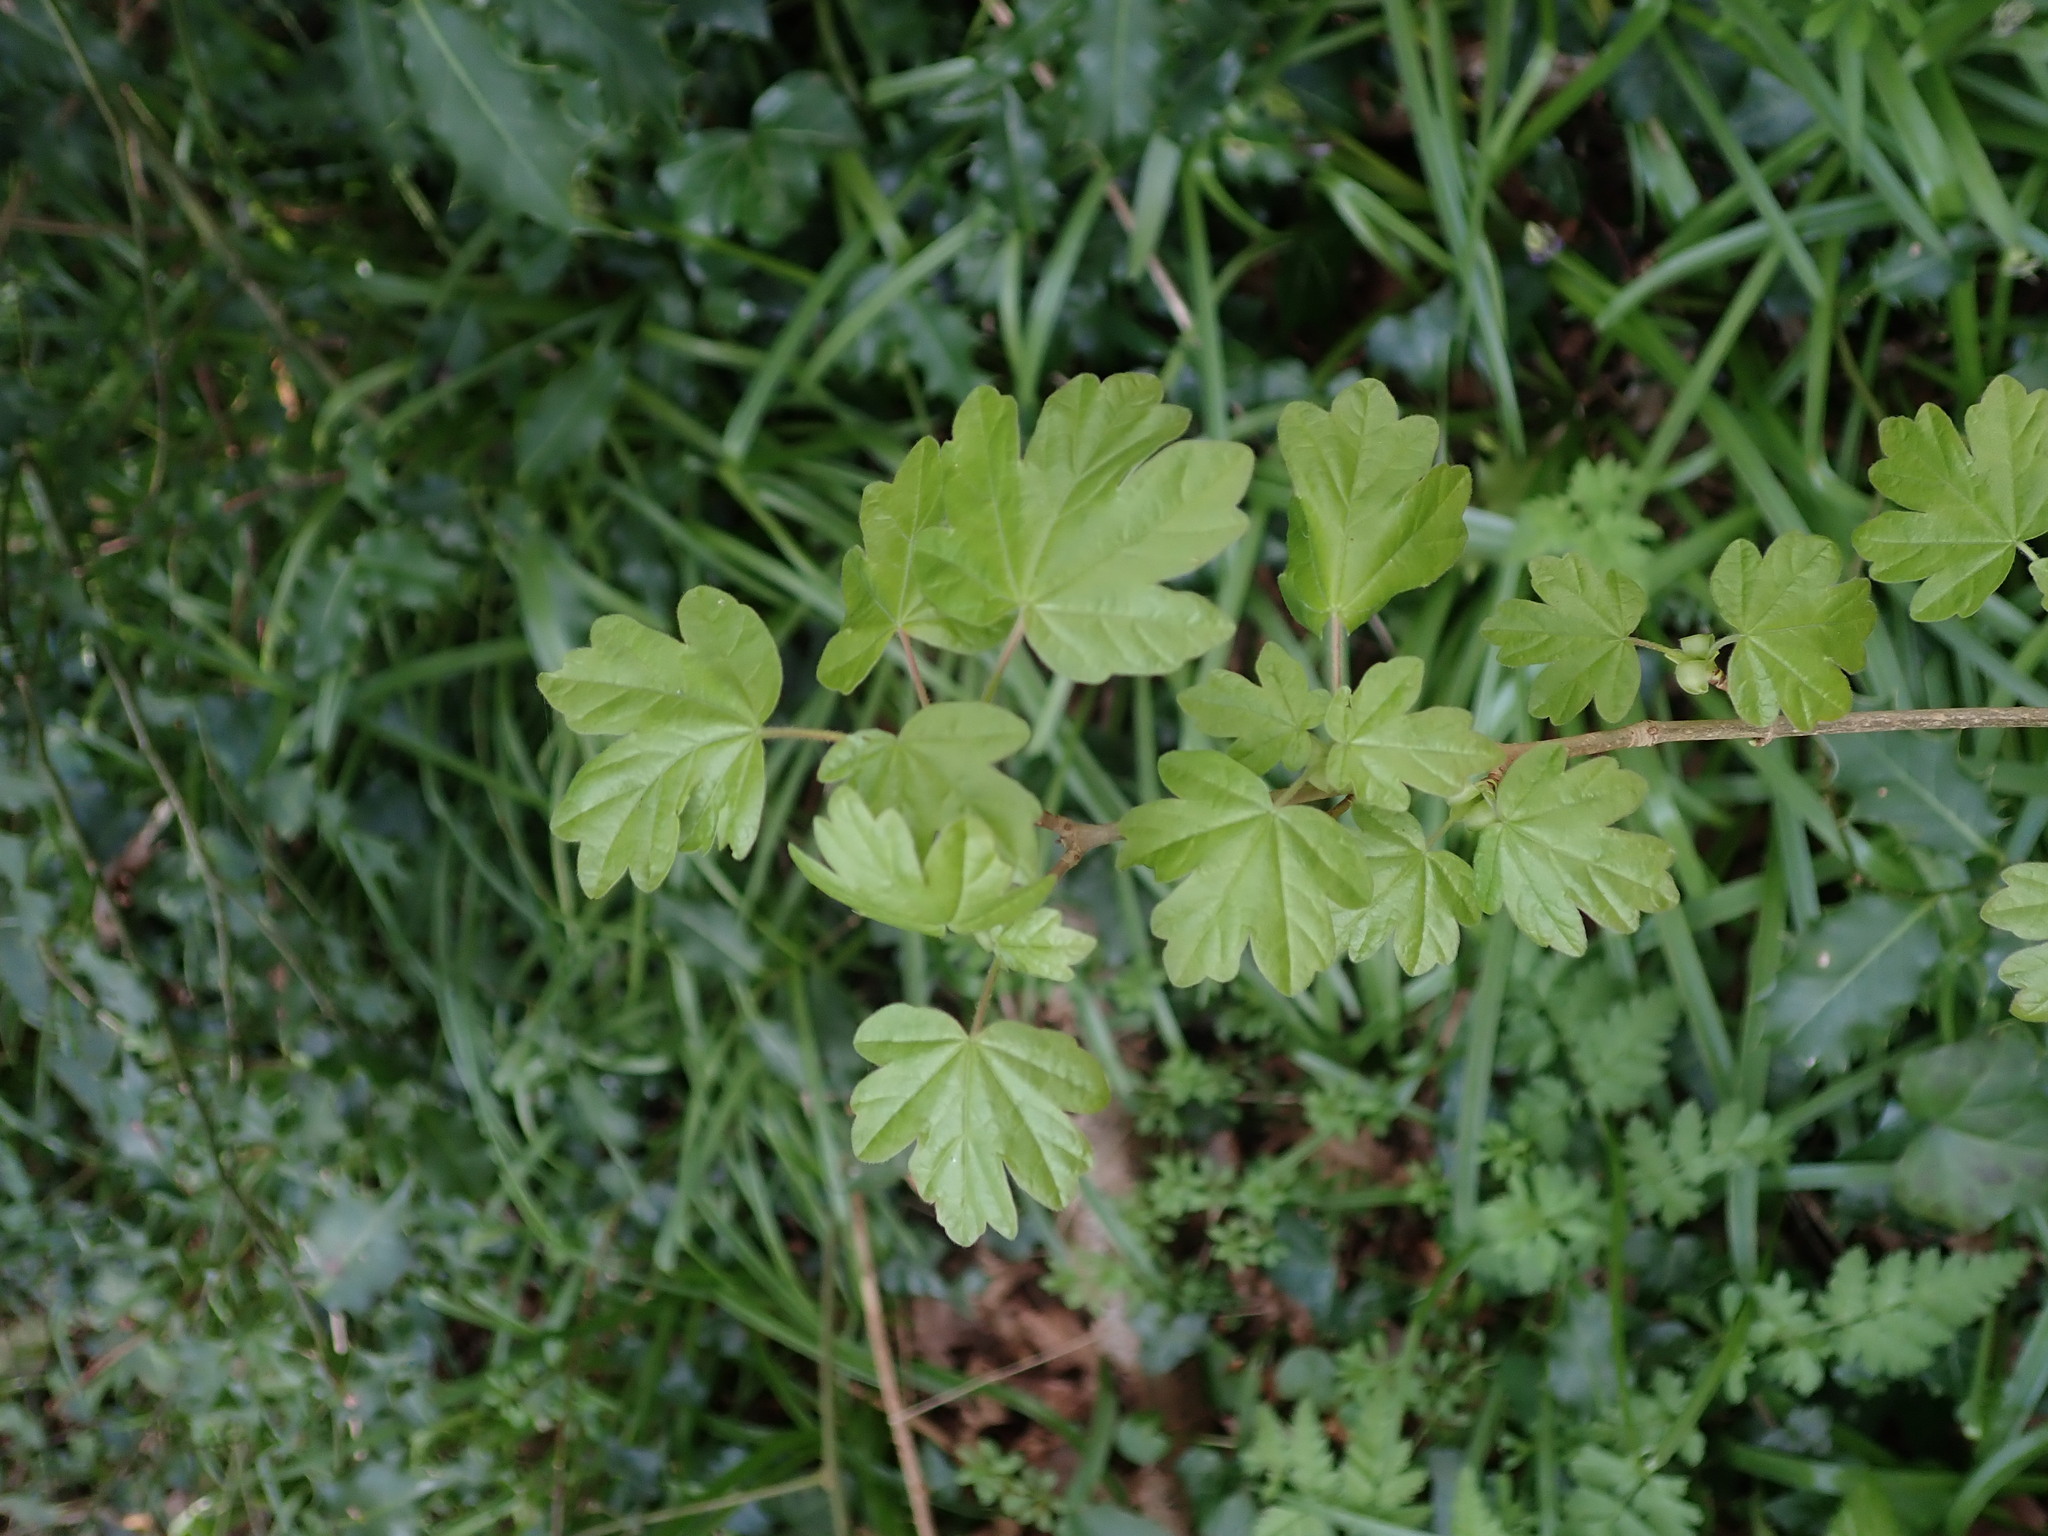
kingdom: Plantae
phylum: Tracheophyta
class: Magnoliopsida
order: Sapindales
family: Sapindaceae
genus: Acer
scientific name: Acer campestre
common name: Field maple
